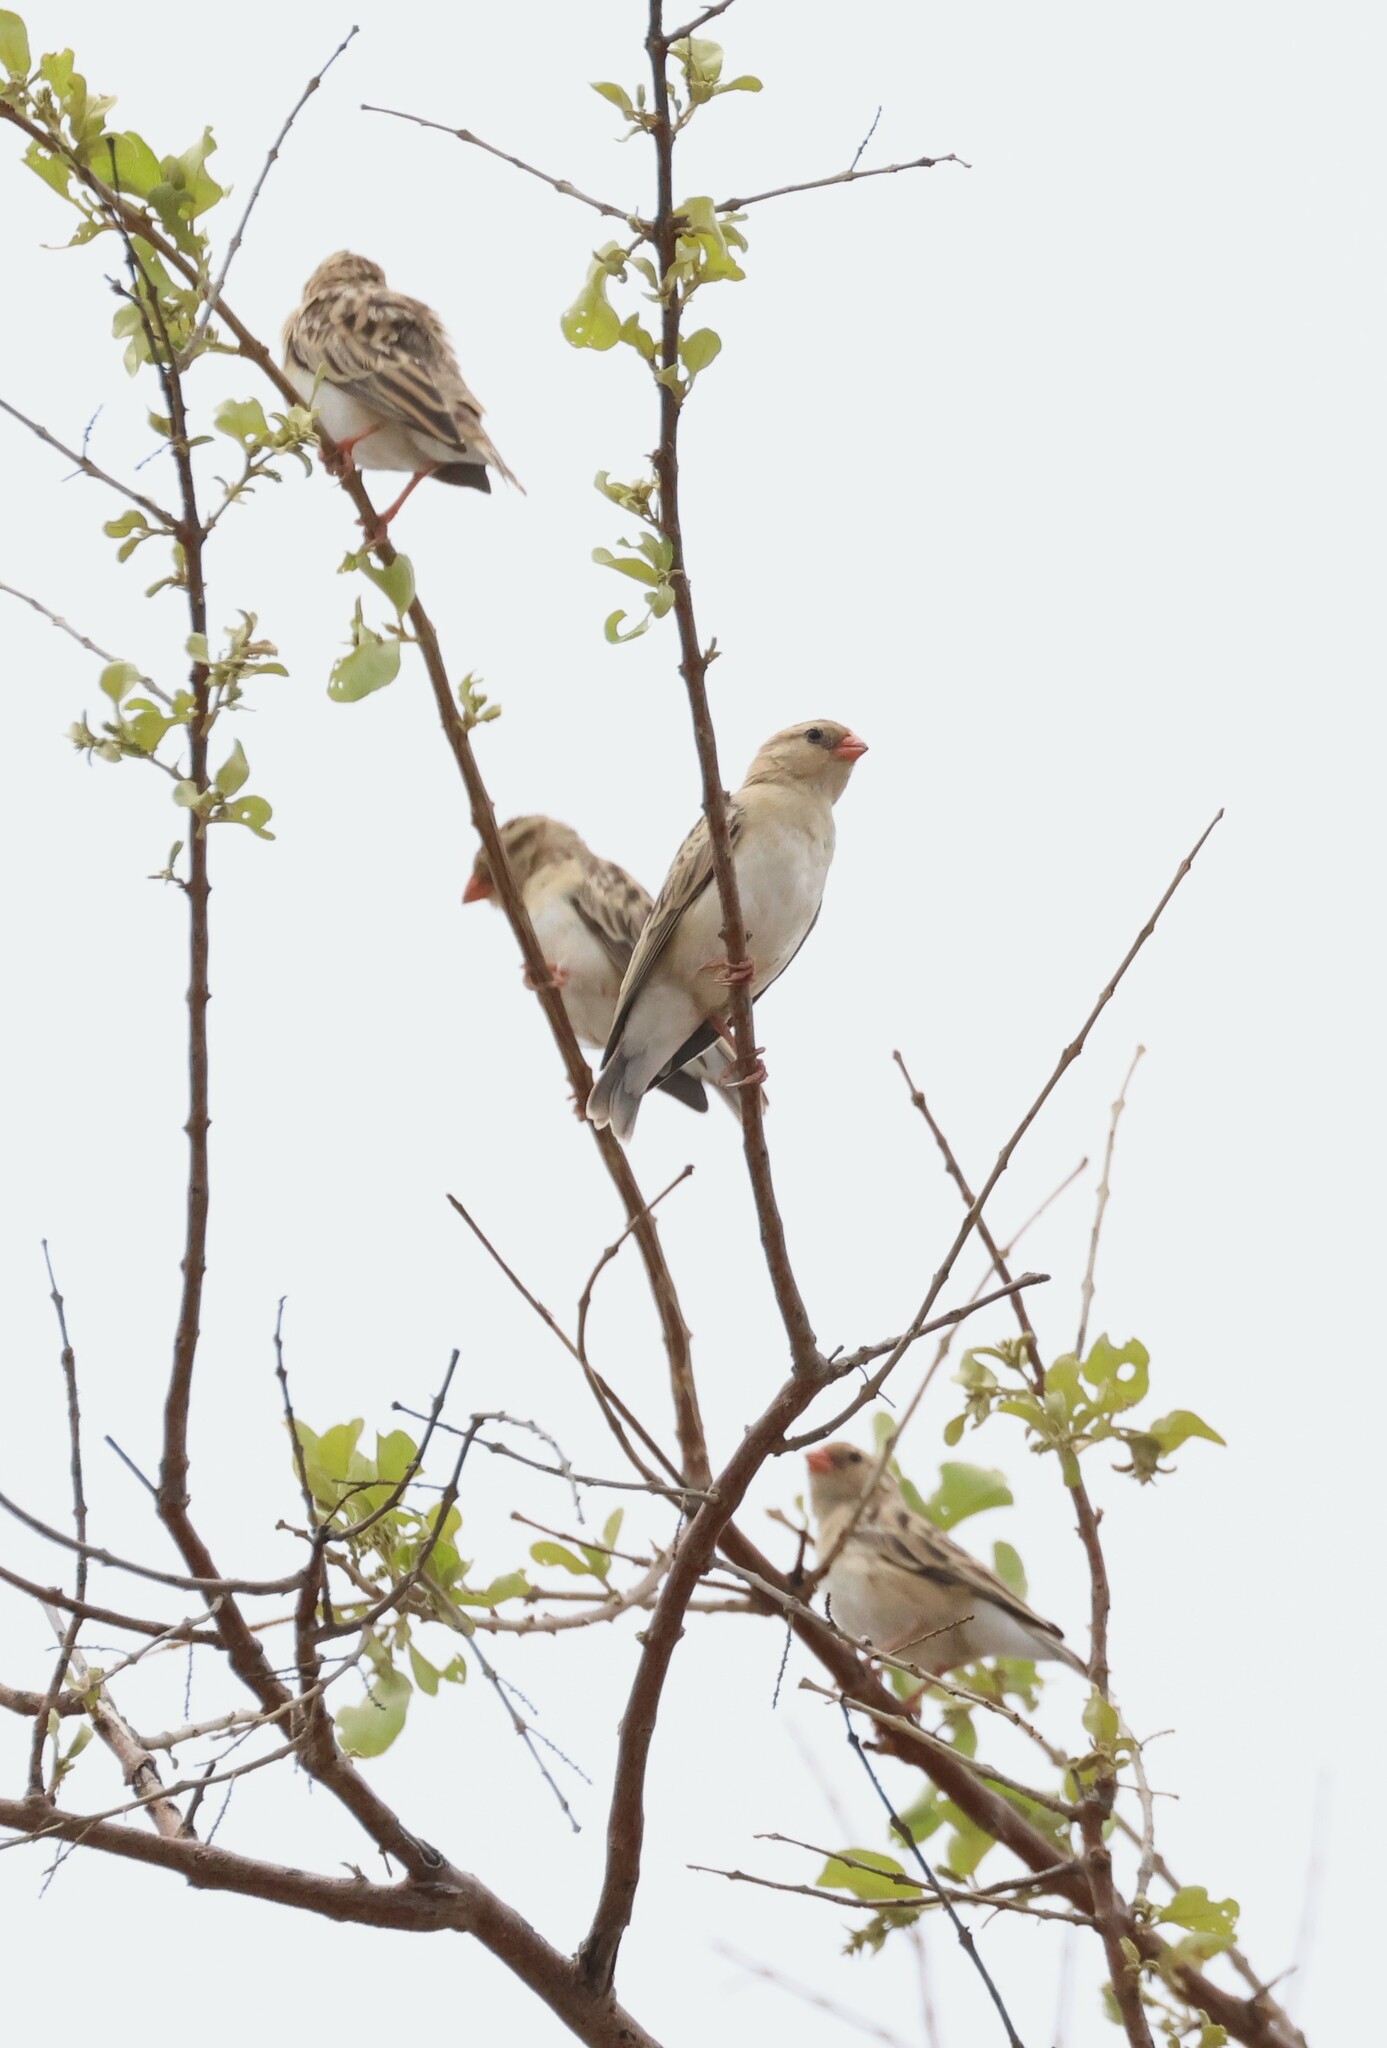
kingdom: Animalia
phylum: Chordata
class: Aves
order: Passeriformes
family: Viduidae
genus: Vidua
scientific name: Vidua regia
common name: Shaft-tailed whydah
